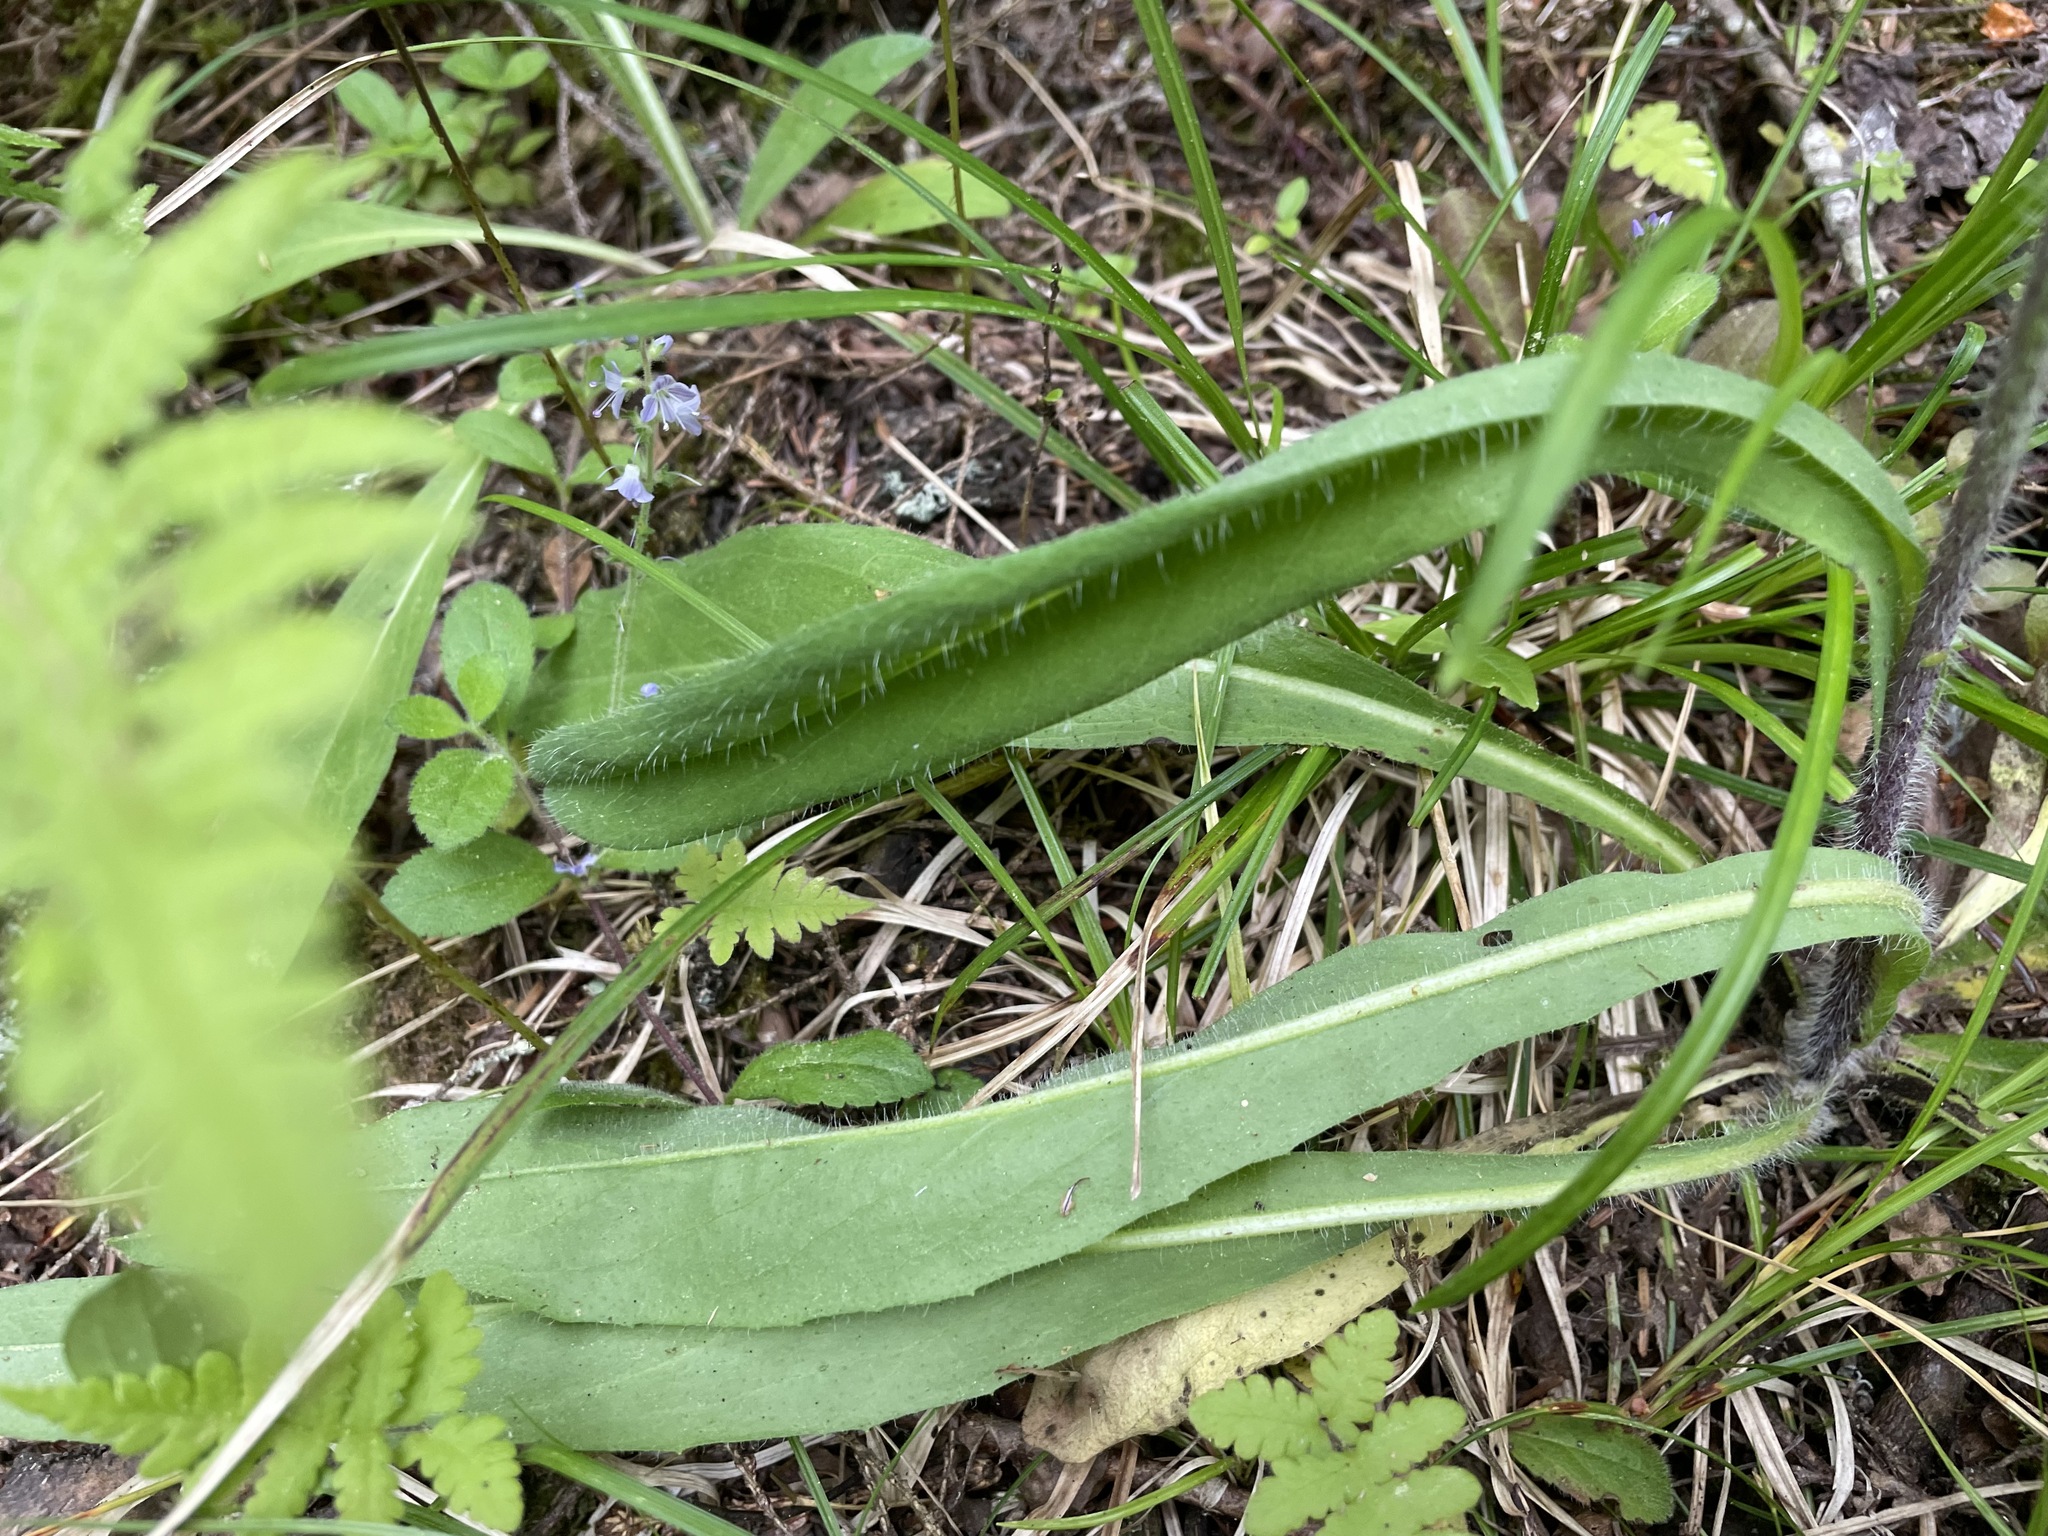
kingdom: Plantae
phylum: Tracheophyta
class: Magnoliopsida
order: Asterales
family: Asteraceae
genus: Pilosella
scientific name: Pilosella caespitosa
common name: Yellow fox-and-cubs
